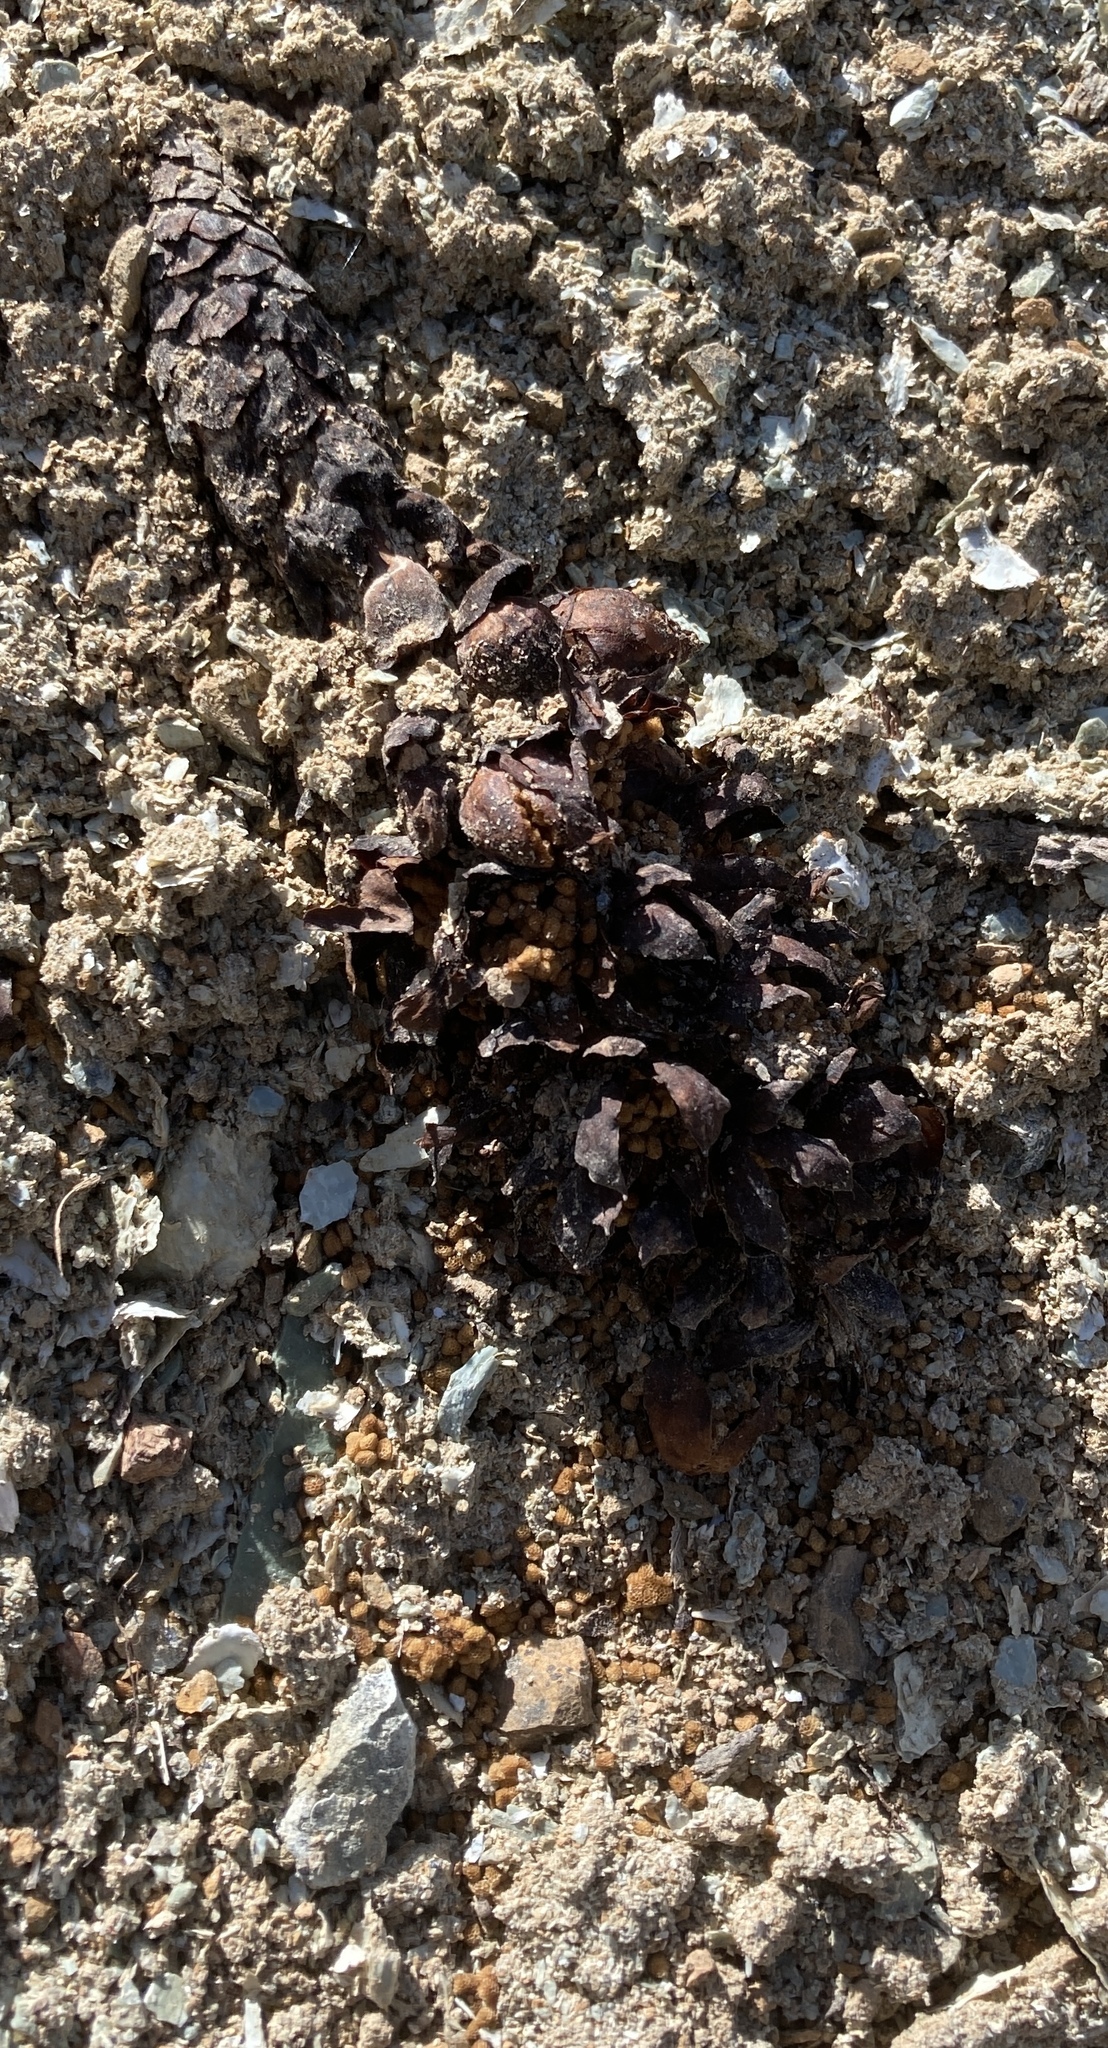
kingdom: Plantae
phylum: Tracheophyta
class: Magnoliopsida
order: Lamiales
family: Orobanchaceae
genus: Kopsiopsis
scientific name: Kopsiopsis strobilacea
